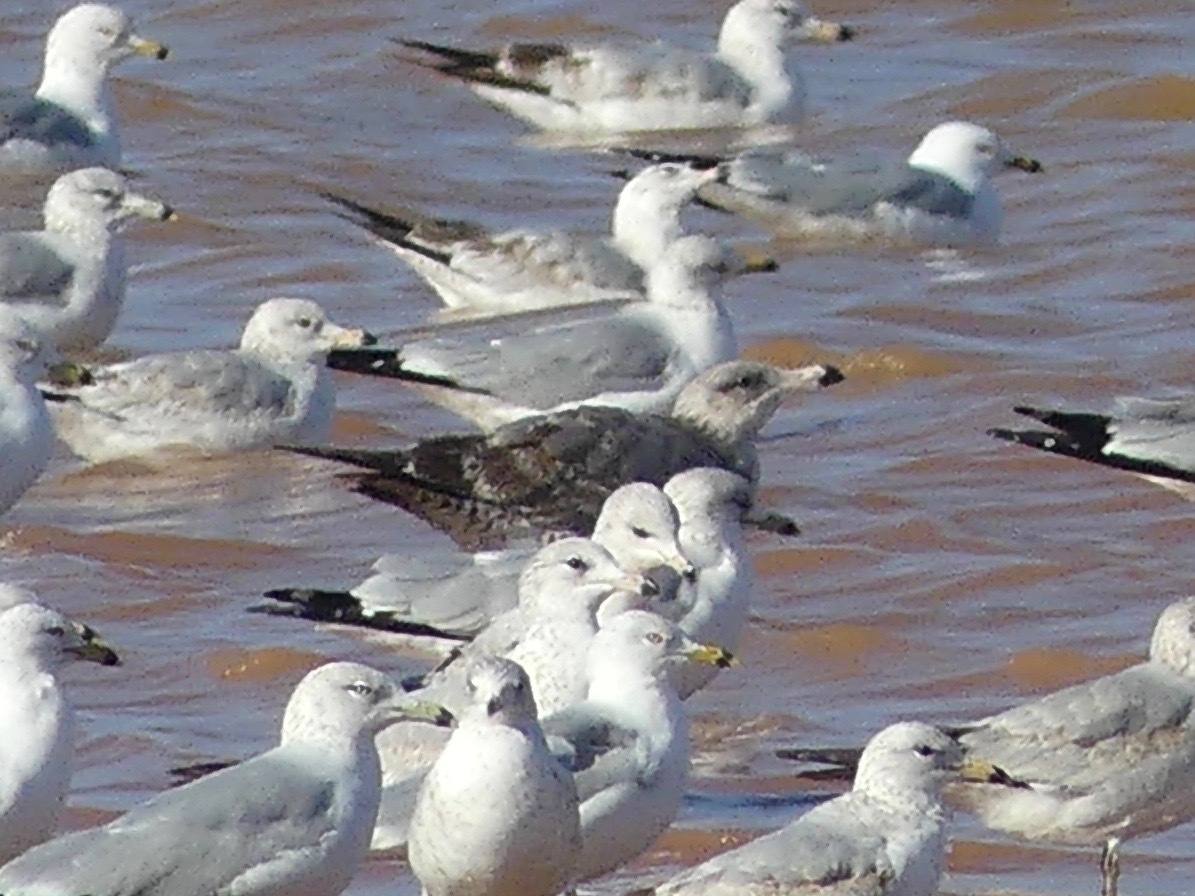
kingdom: Animalia
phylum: Chordata
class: Aves
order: Charadriiformes
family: Laridae
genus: Larus
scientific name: Larus californicus
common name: California gull
